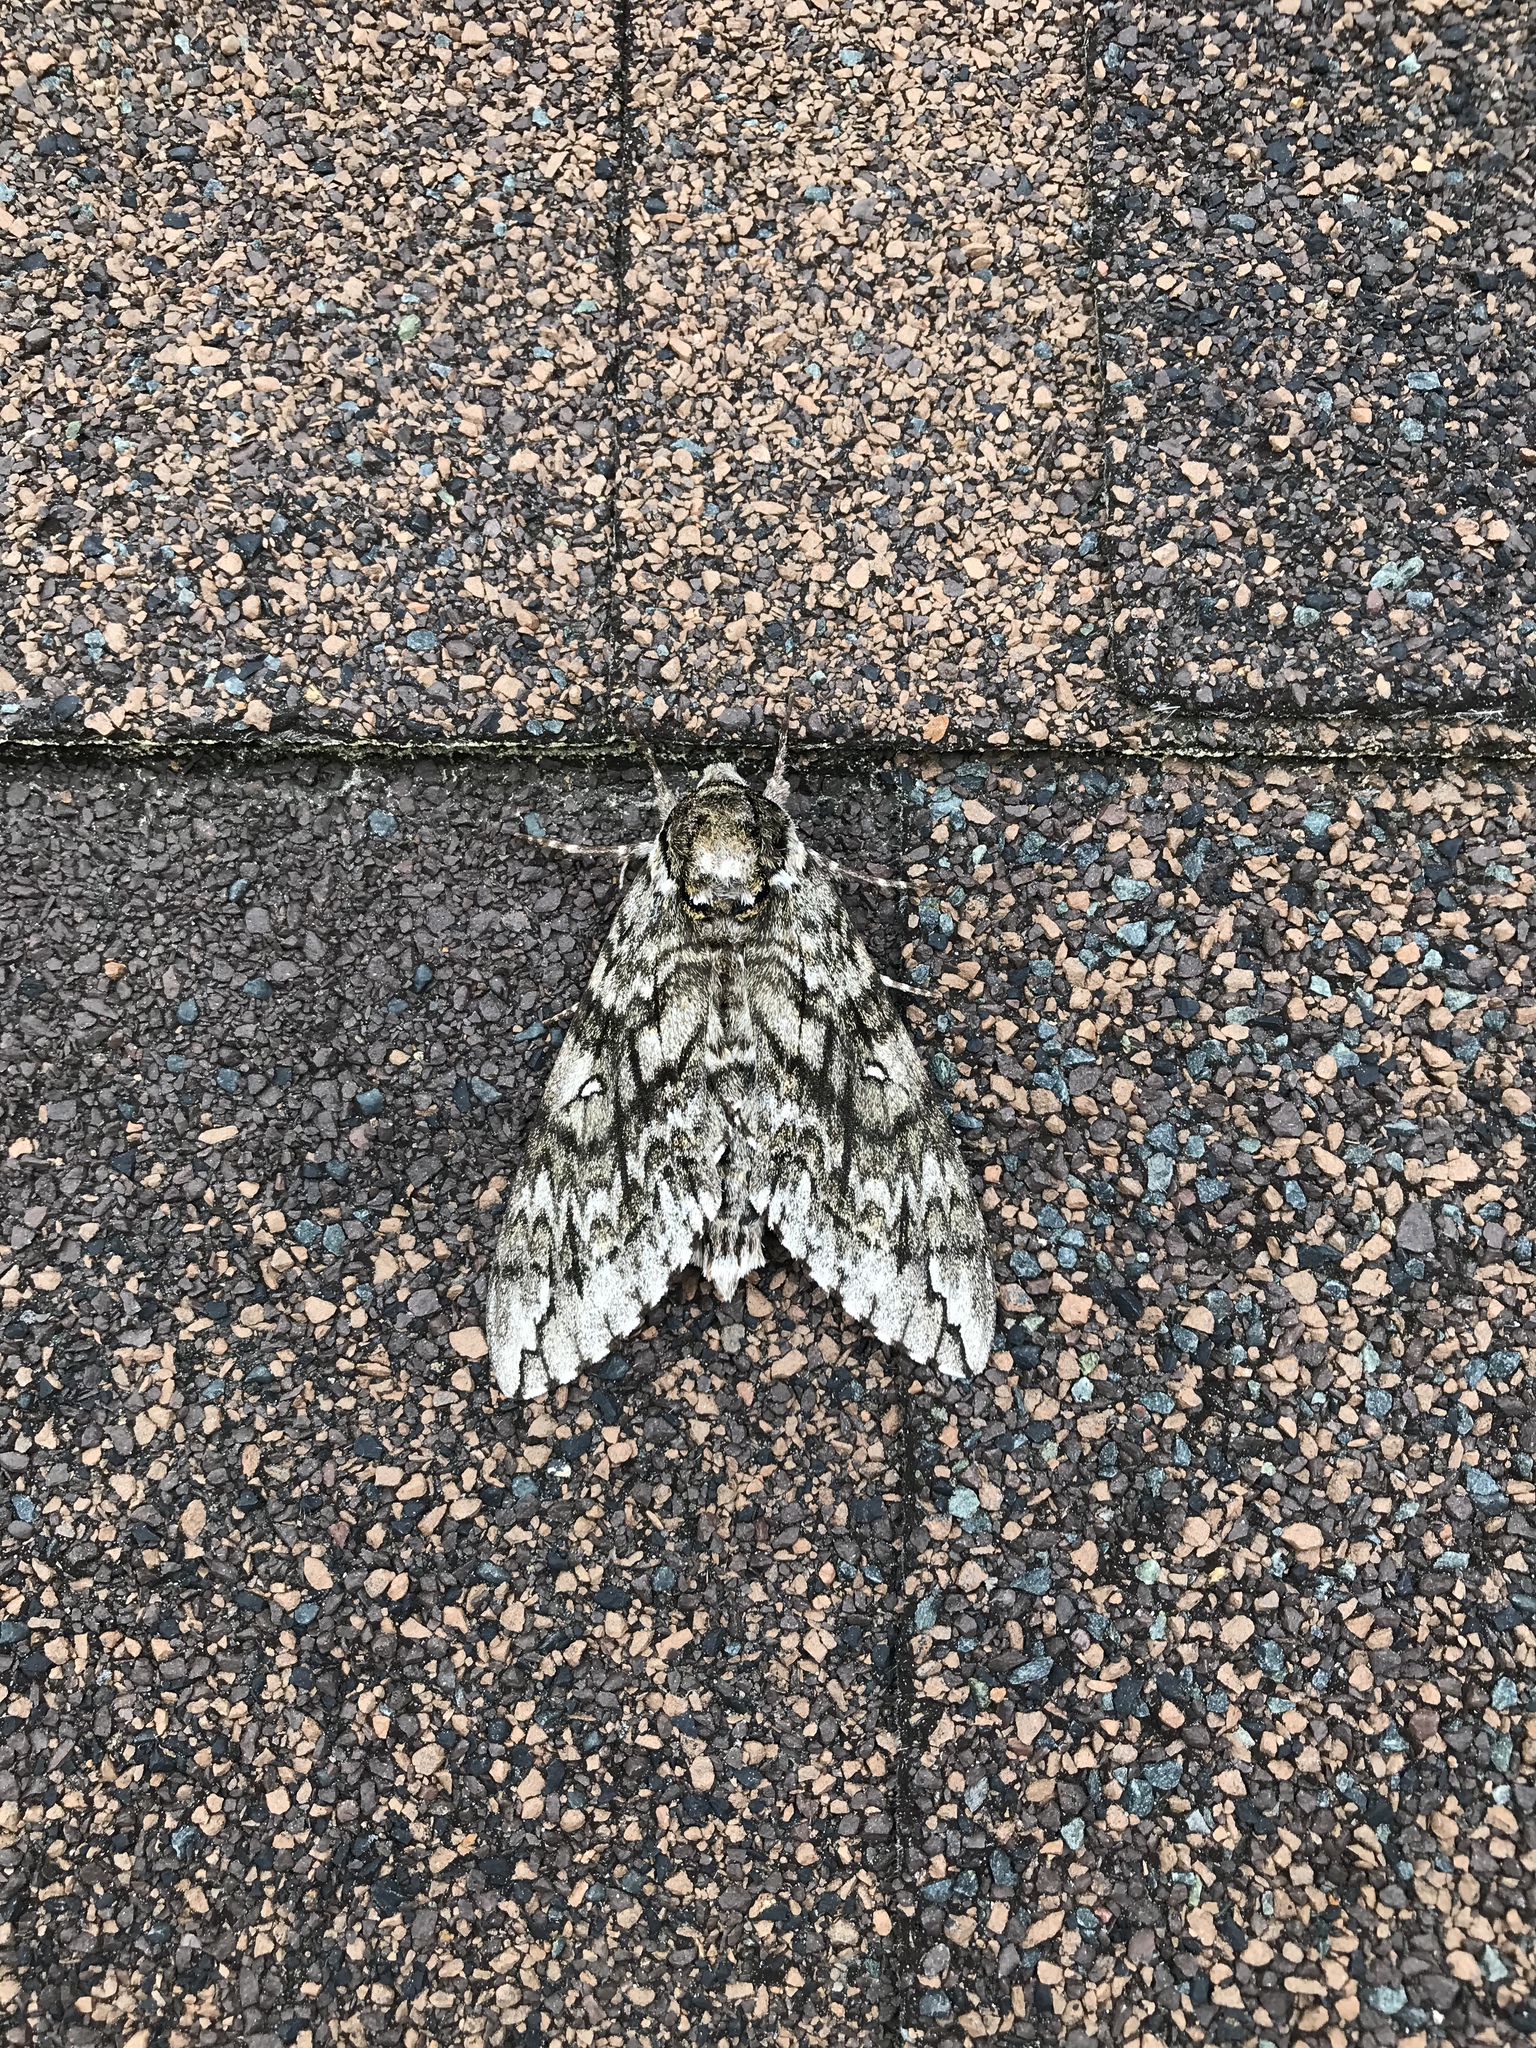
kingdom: Animalia
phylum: Arthropoda
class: Insecta
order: Lepidoptera
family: Sphingidae
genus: Ceratomia
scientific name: Ceratomia undulosa
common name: Waved sphinx
